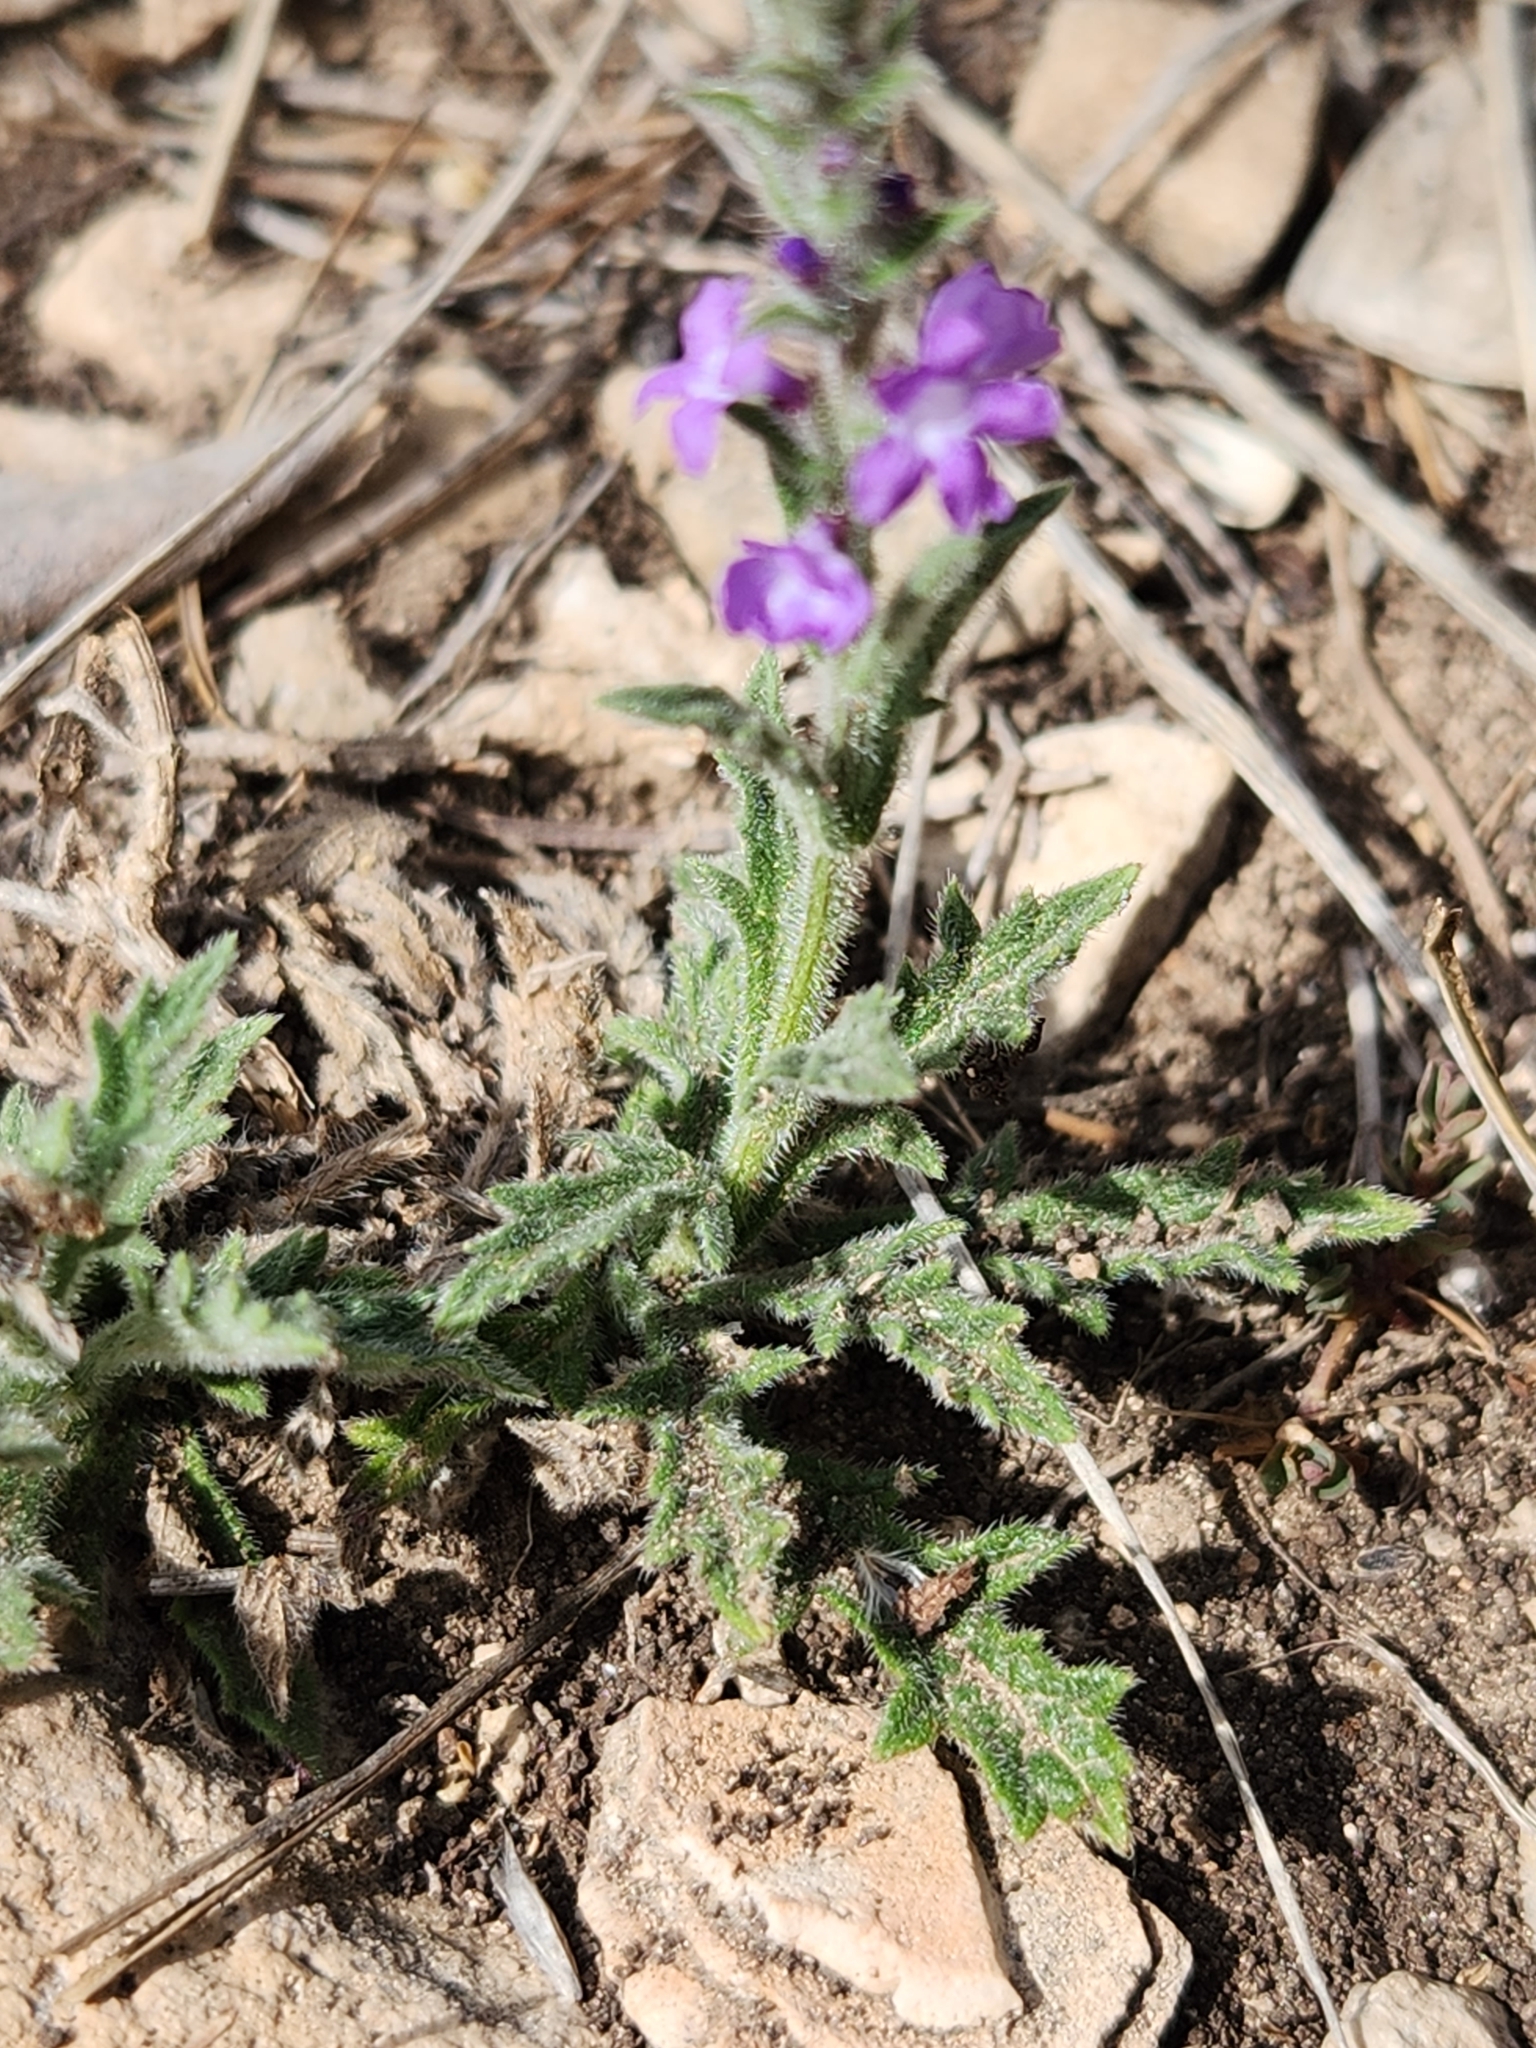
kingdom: Plantae
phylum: Tracheophyta
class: Magnoliopsida
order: Lamiales
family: Verbenaceae
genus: Verbena
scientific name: Verbena canescens
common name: Gray vervain
